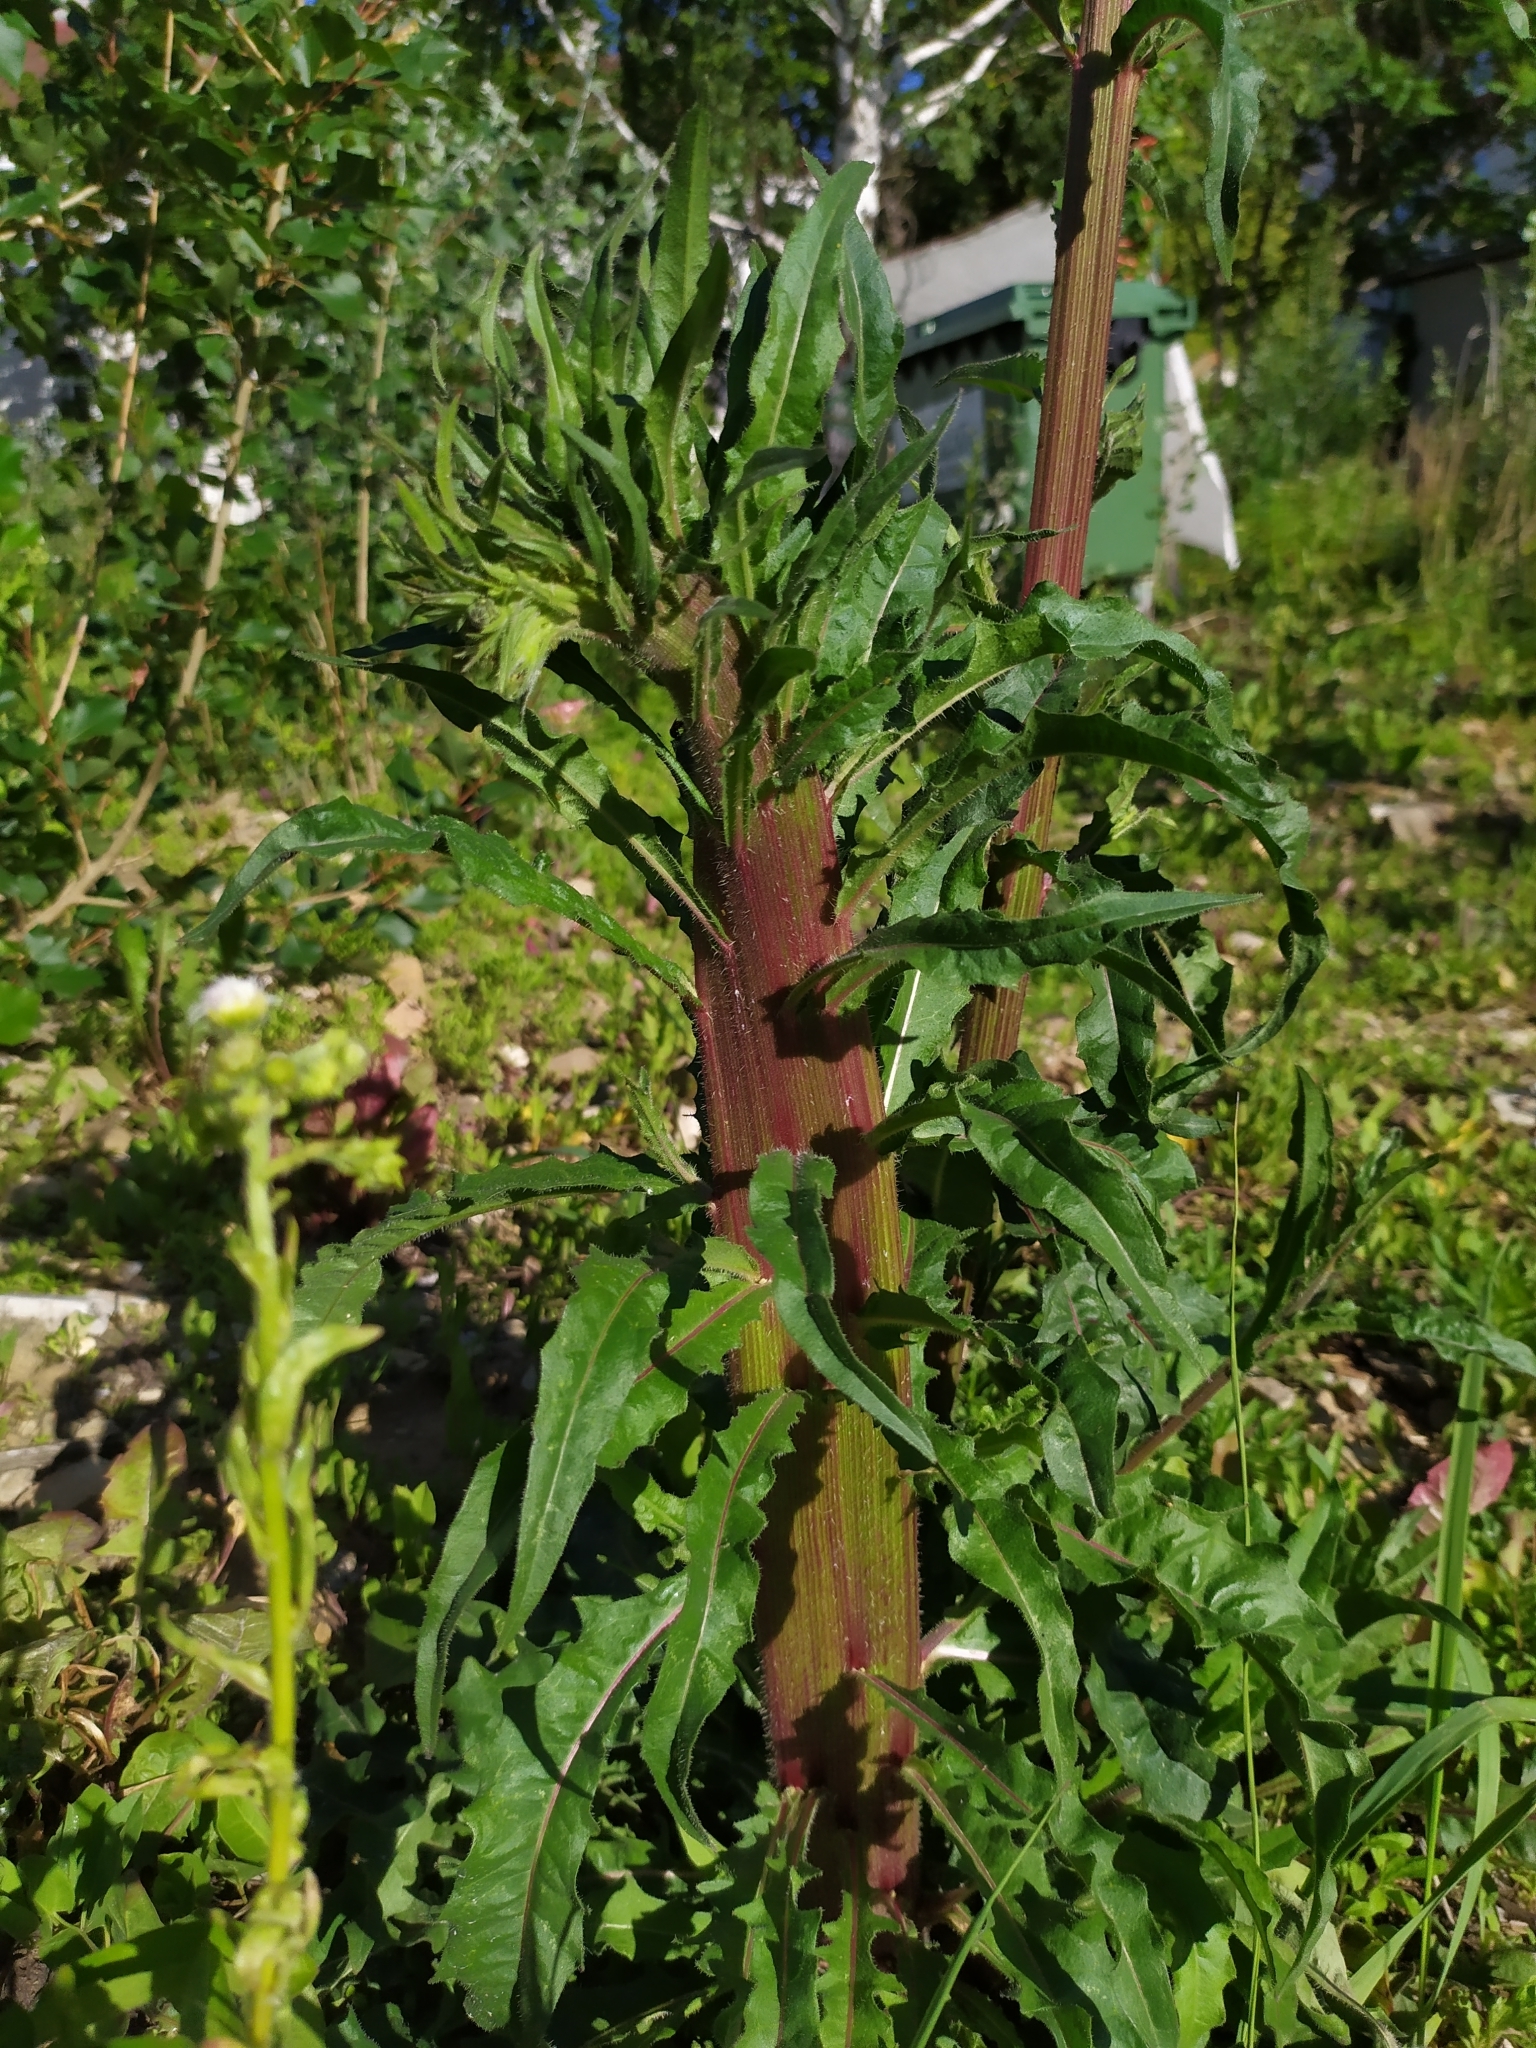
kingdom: Plantae
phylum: Tracheophyta
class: Magnoliopsida
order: Asterales
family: Asteraceae
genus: Picris
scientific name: Picris hieracioides
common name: Hawkweed oxtongue
